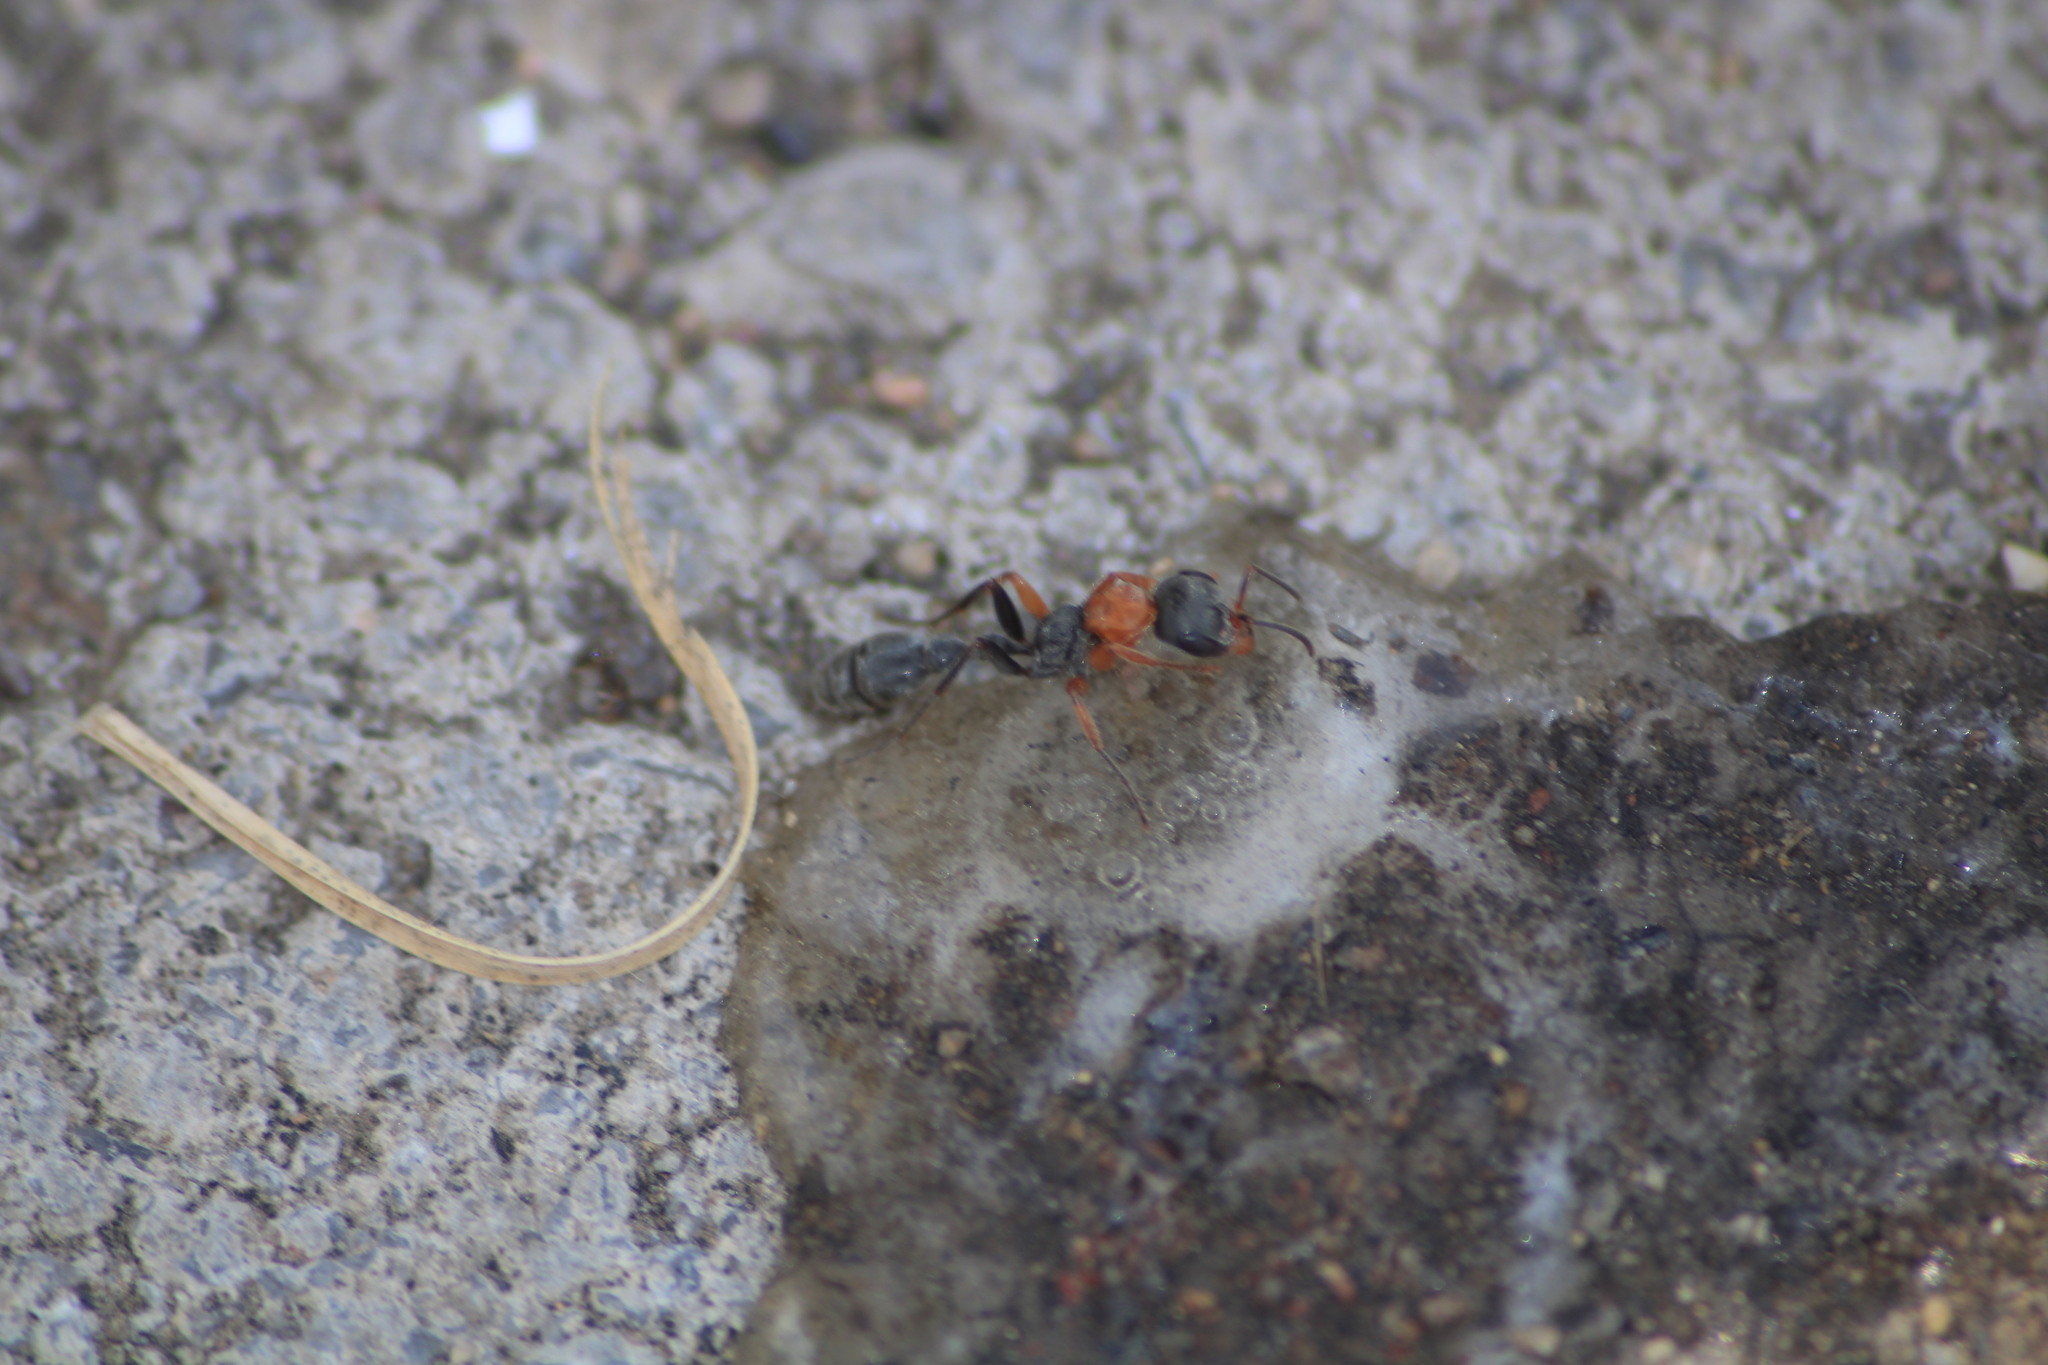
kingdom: Animalia
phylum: Arthropoda
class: Insecta
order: Hymenoptera
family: Formicidae
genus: Pseudomyrmex
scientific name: Pseudomyrmex gracilis
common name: Graceful twig ant
